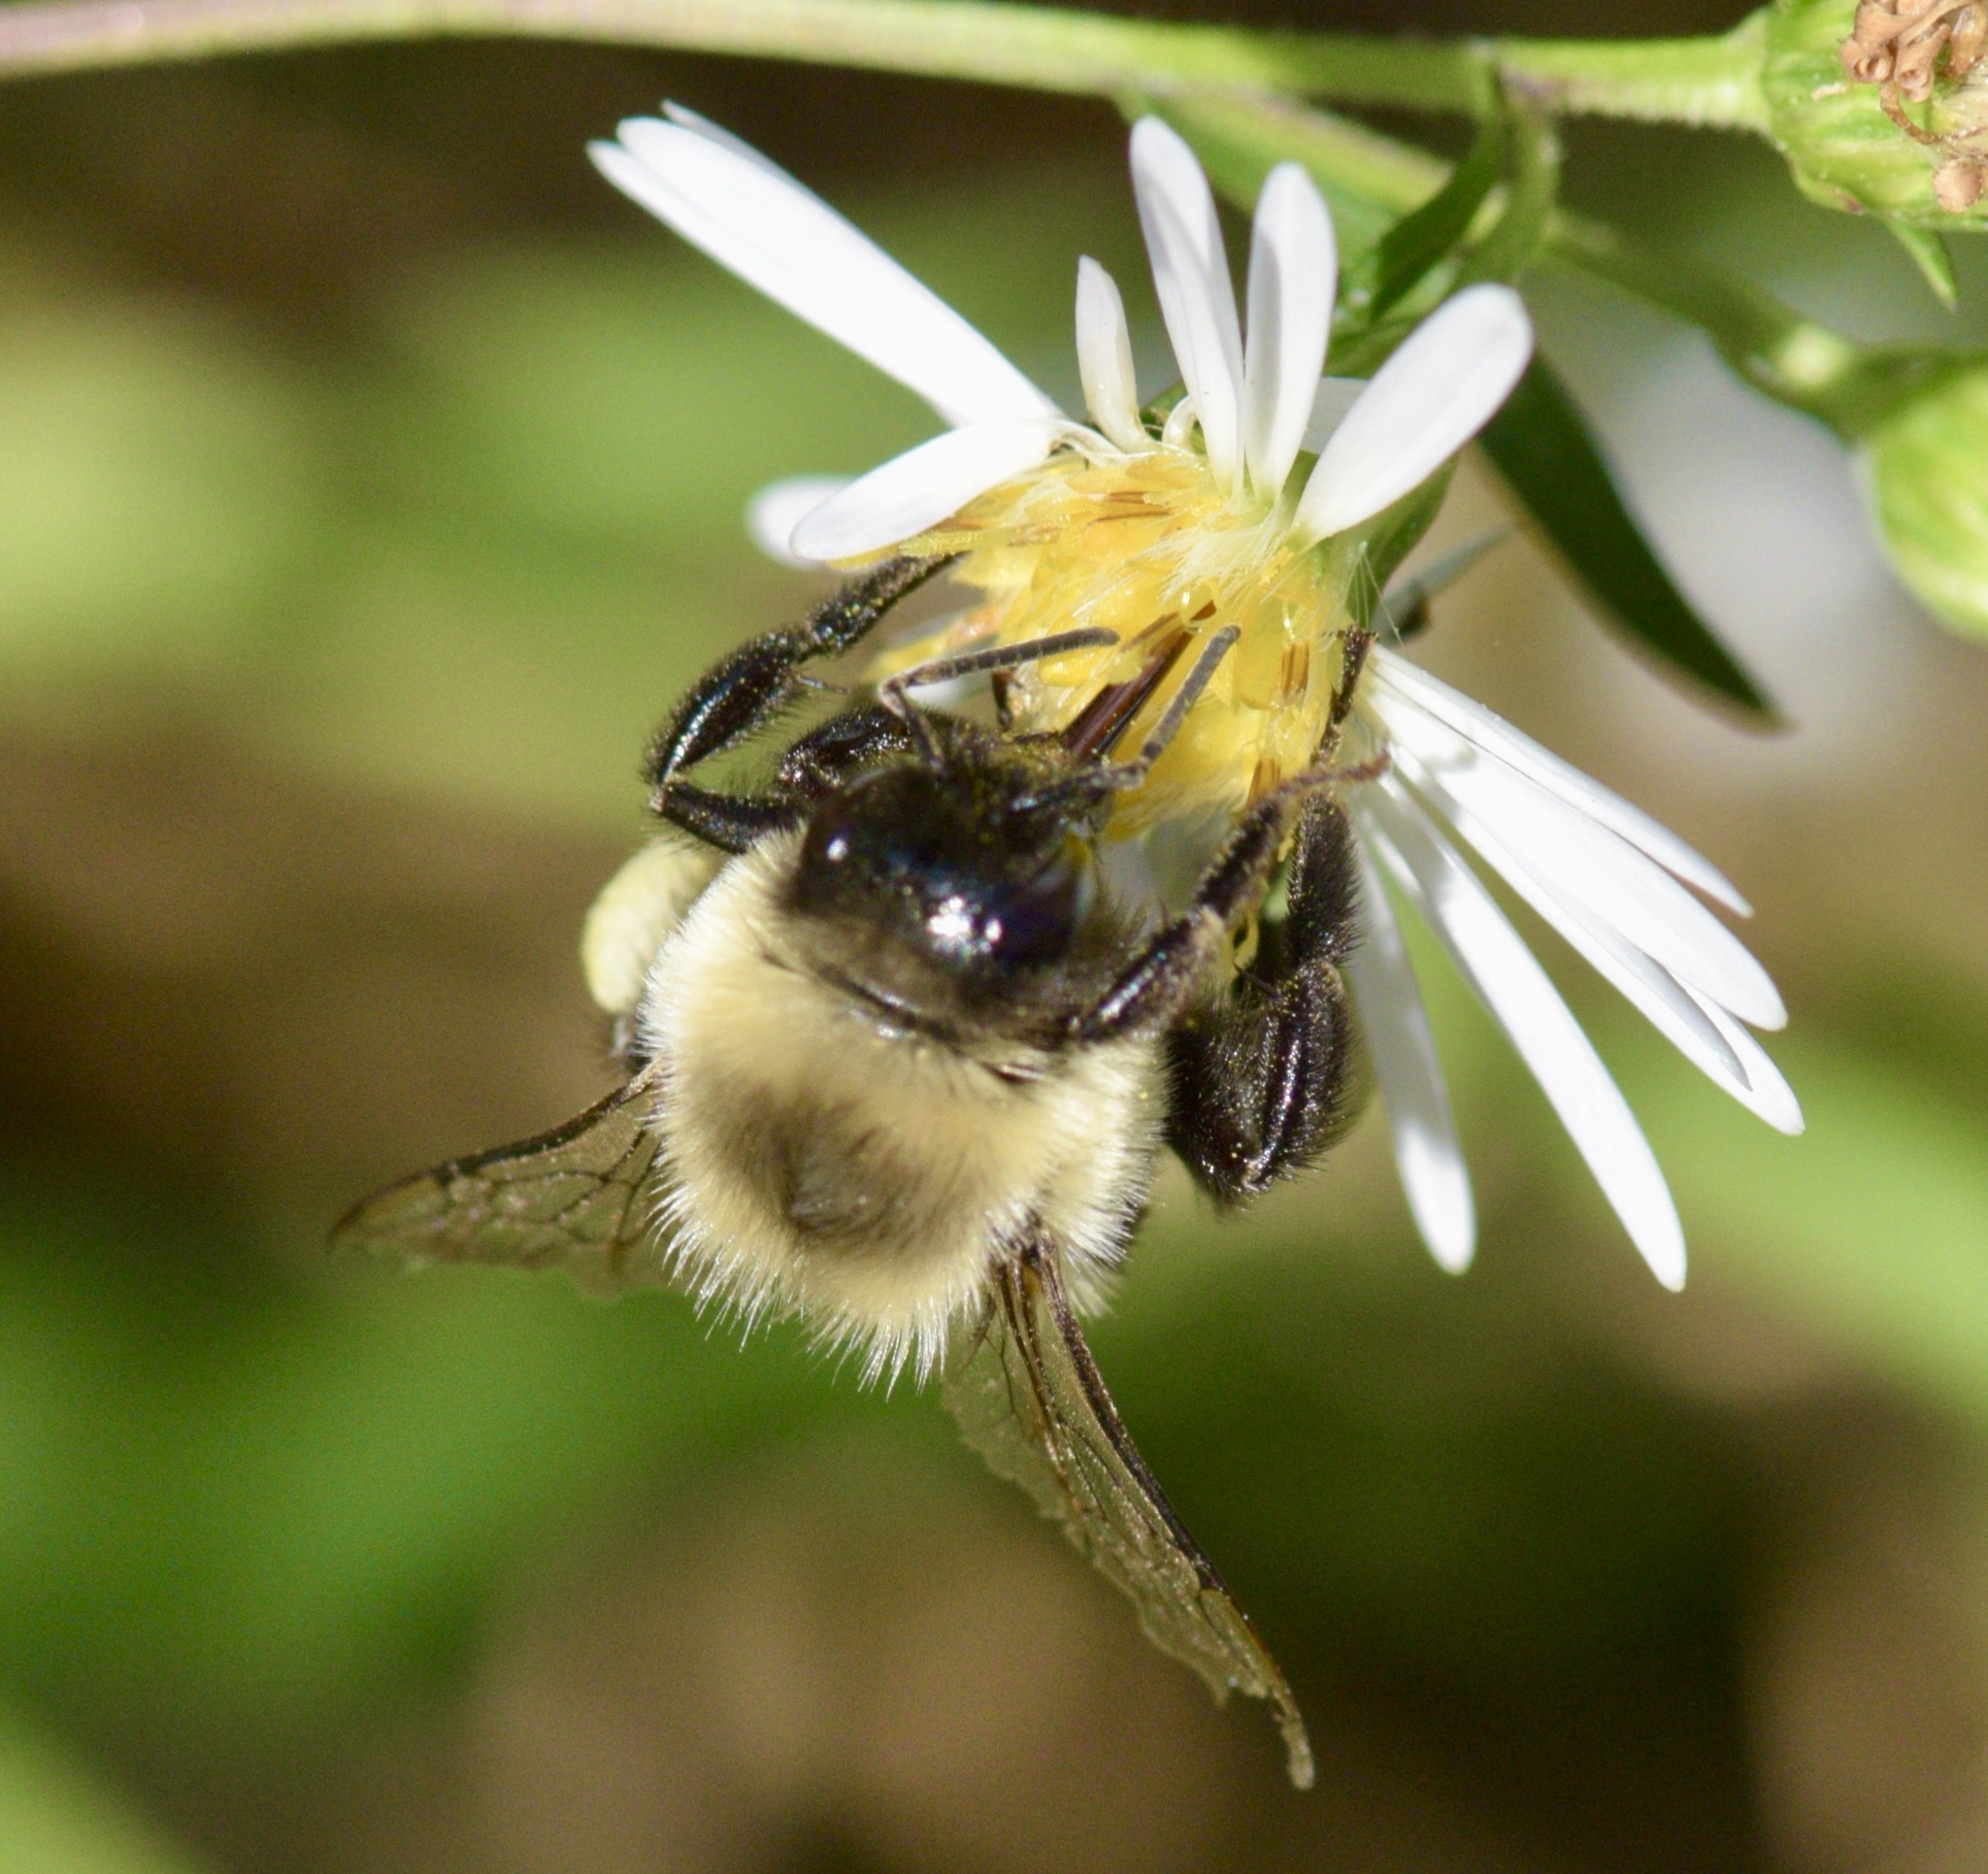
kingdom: Animalia
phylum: Arthropoda
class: Insecta
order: Hymenoptera
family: Apidae
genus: Bombus
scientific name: Bombus impatiens
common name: Common eastern bumble bee
